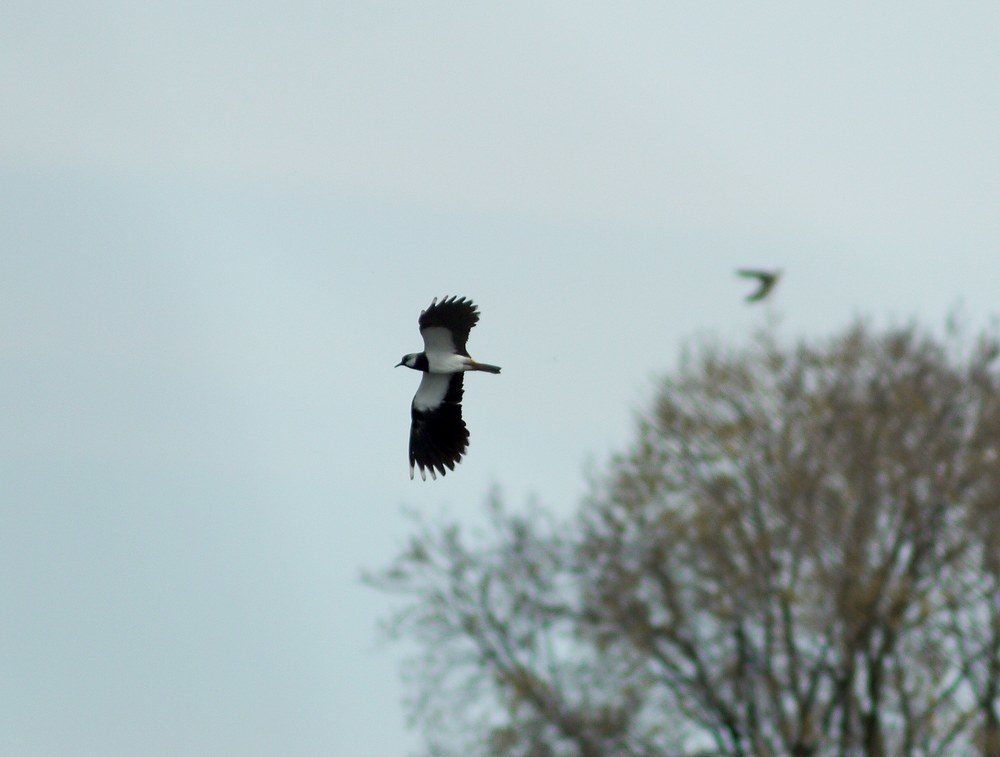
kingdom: Animalia
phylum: Chordata
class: Aves
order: Charadriiformes
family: Charadriidae
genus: Vanellus
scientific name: Vanellus vanellus
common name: Northern lapwing
